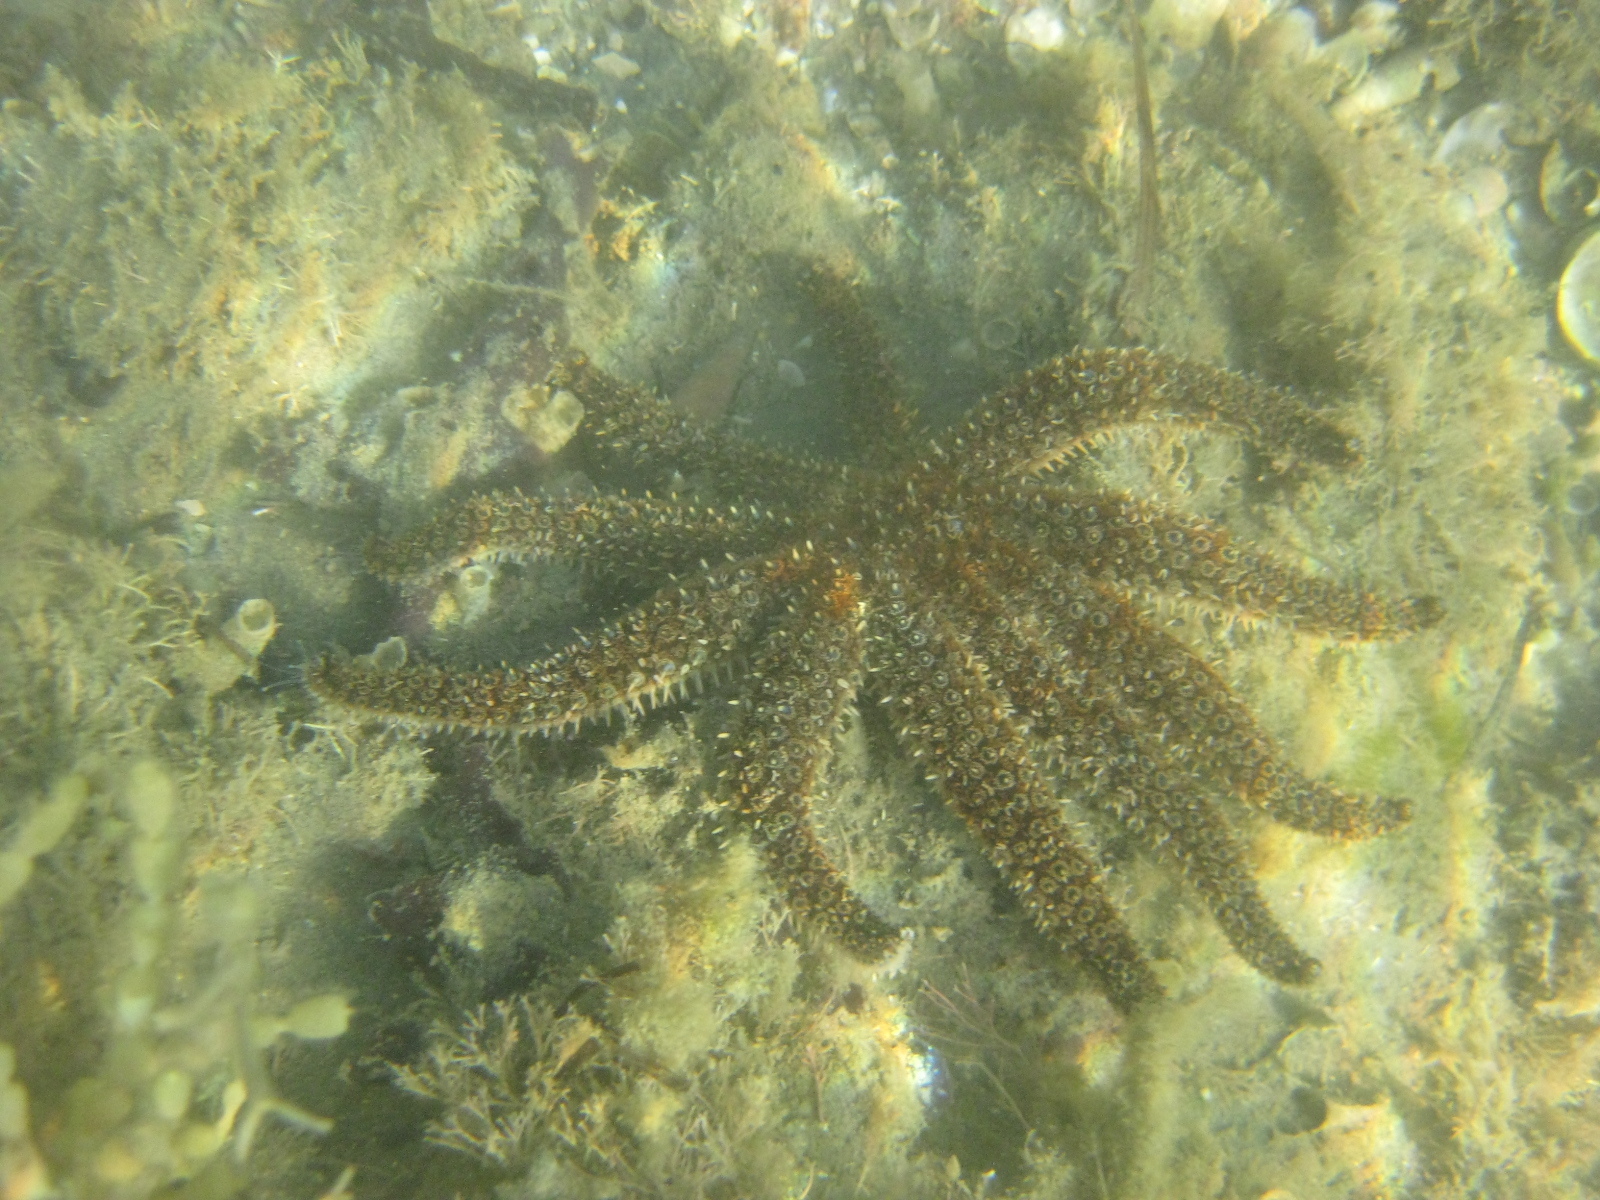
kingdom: Animalia
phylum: Echinodermata
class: Asteroidea
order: Forcipulatida
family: Asteriidae
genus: Coscinasterias
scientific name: Coscinasterias muricata
